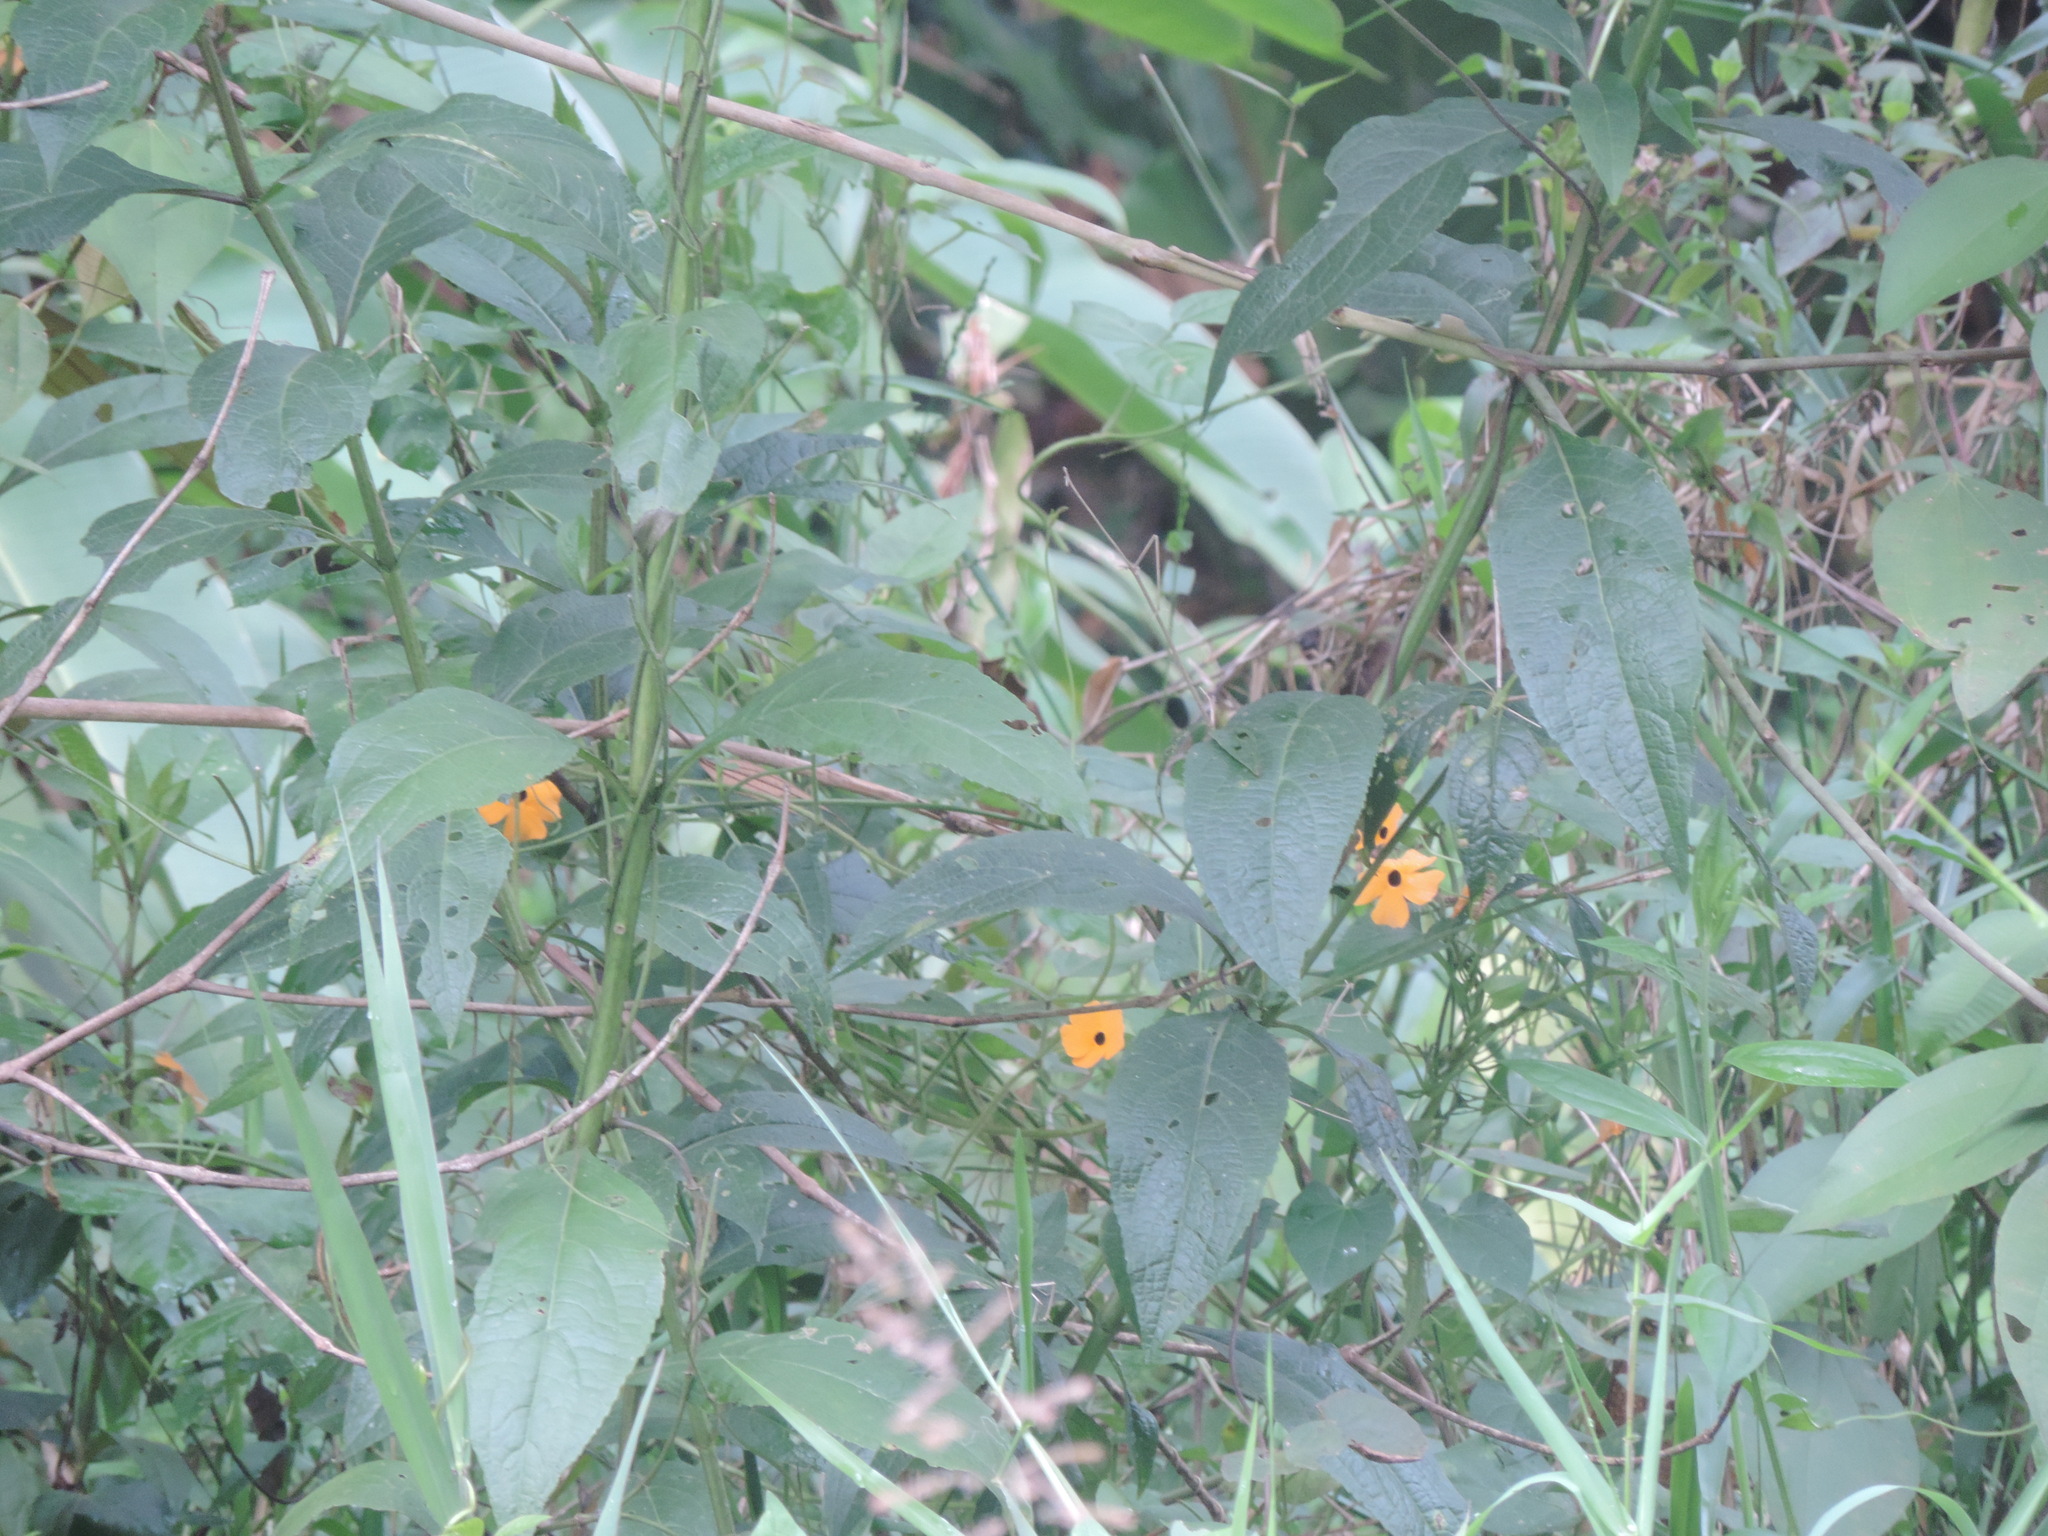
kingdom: Plantae
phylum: Tracheophyta
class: Magnoliopsida
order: Lamiales
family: Acanthaceae
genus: Thunbergia
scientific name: Thunbergia alata
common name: Blackeyed susan vine
